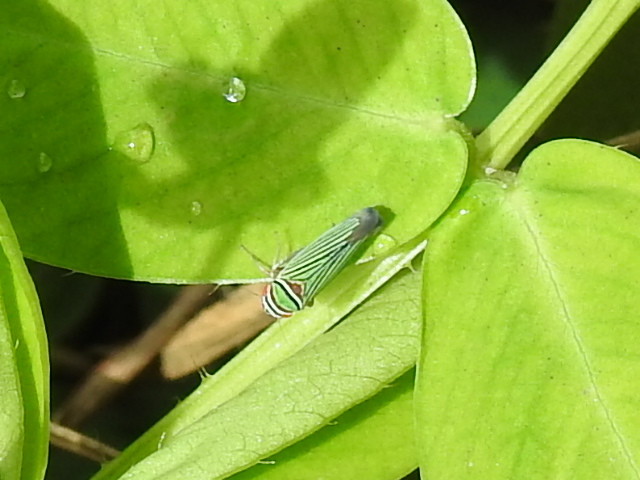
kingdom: Animalia
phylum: Arthropoda
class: Insecta
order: Hemiptera
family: Cicadellidae
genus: Tylozygus
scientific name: Tylozygus fuscolineellus
